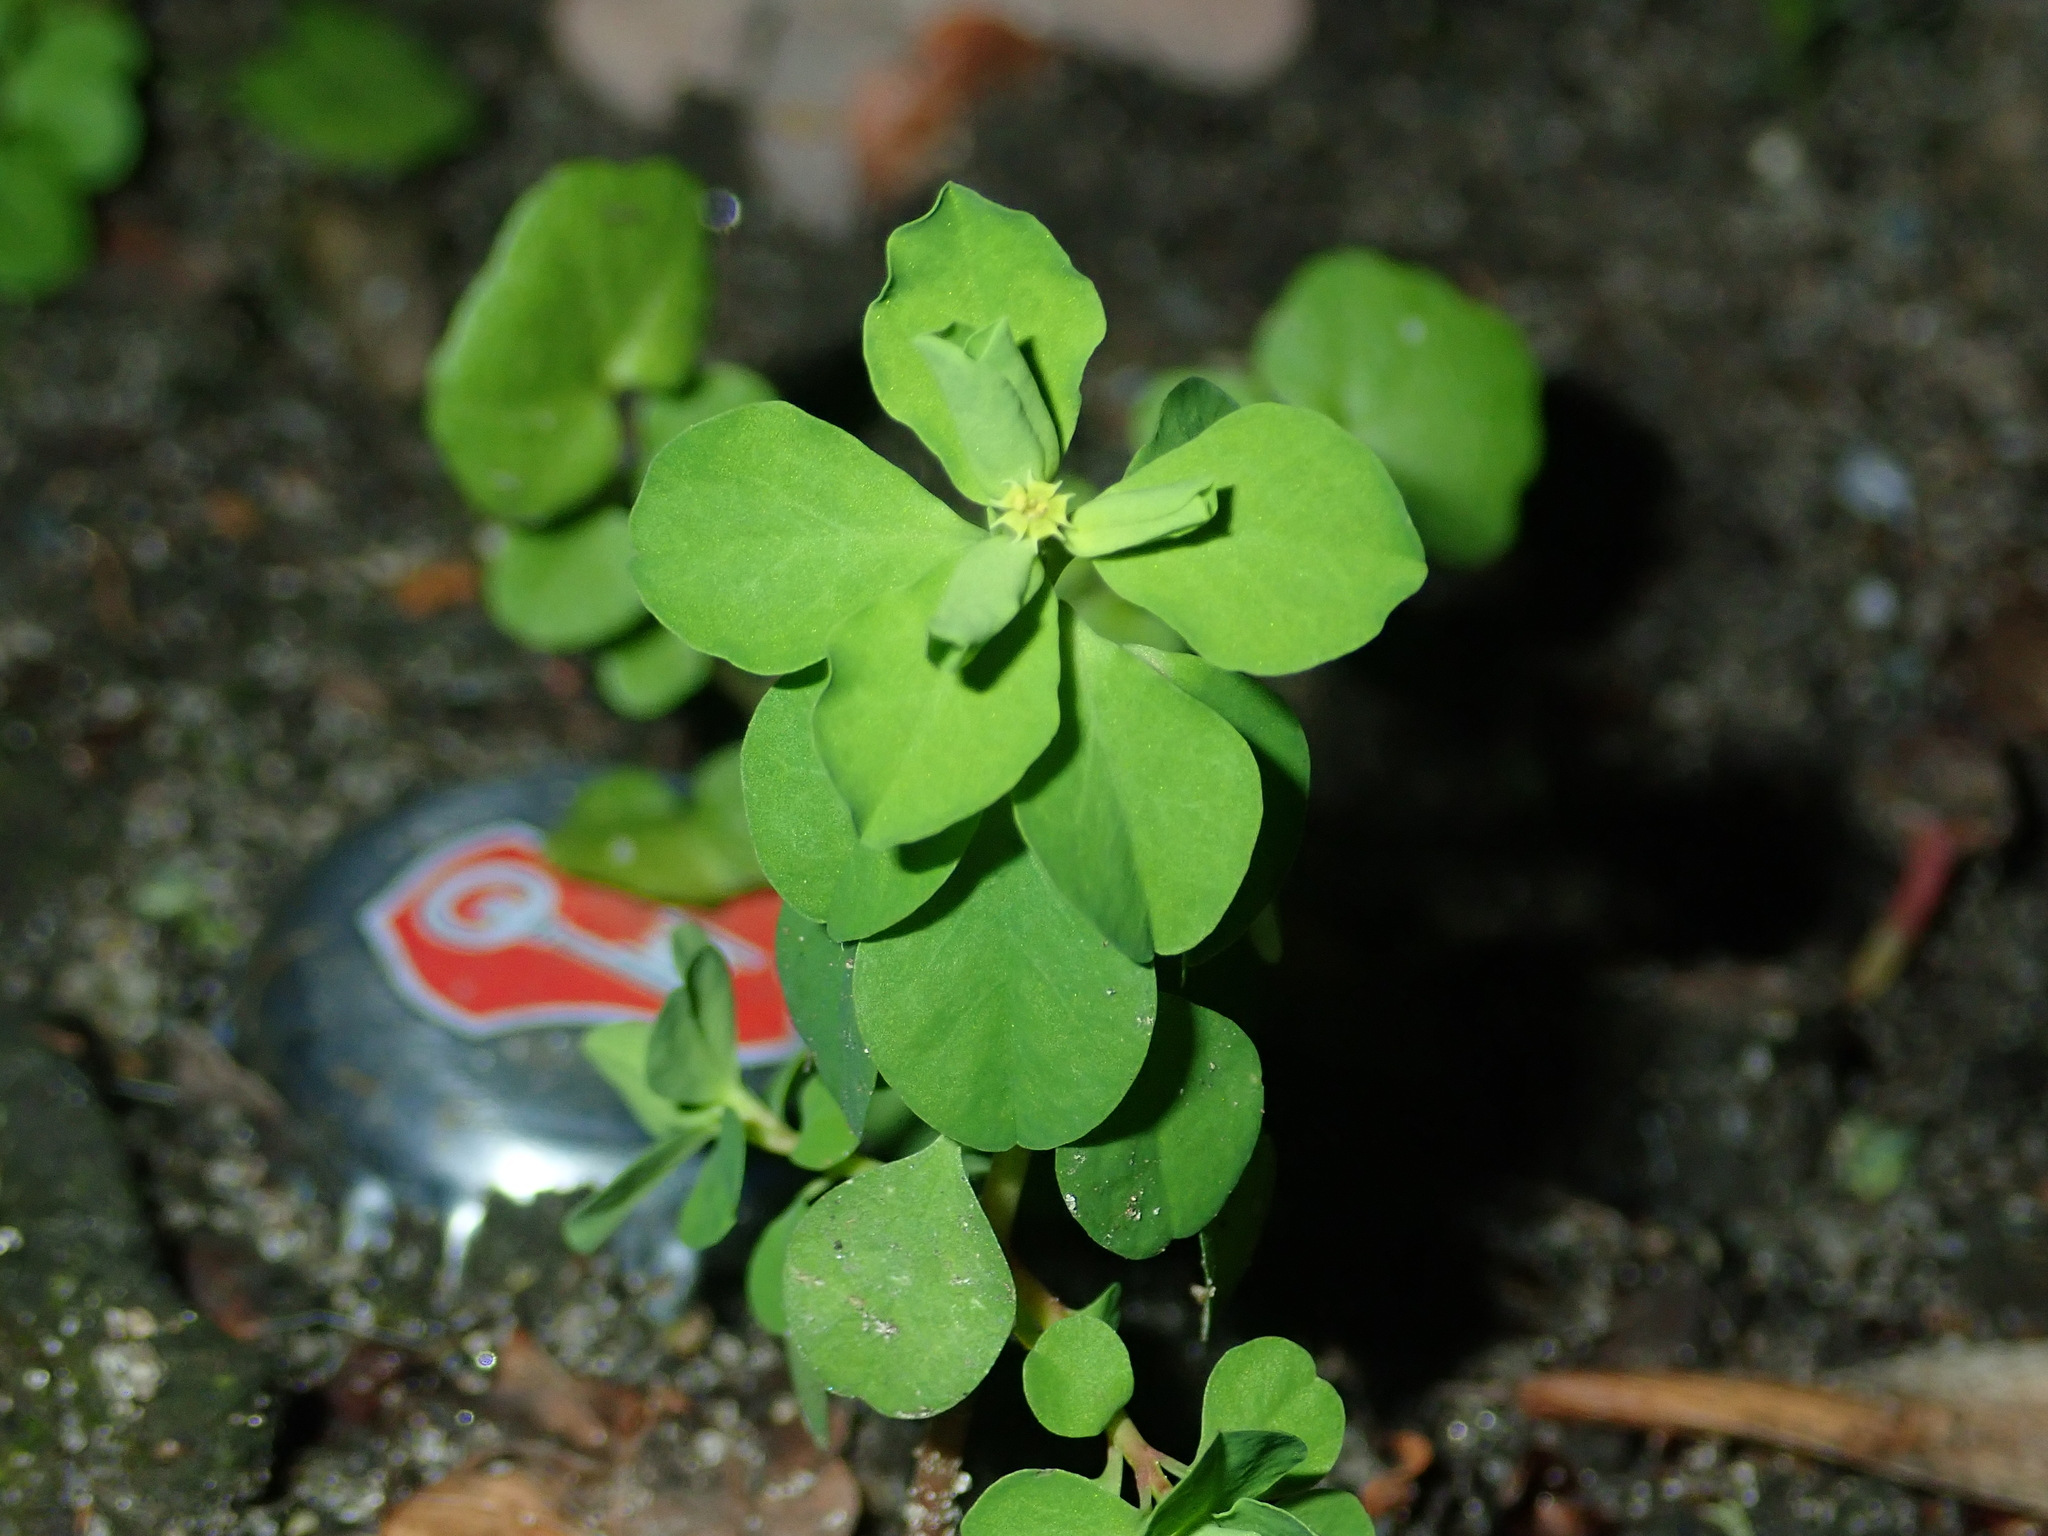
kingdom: Plantae
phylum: Tracheophyta
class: Magnoliopsida
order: Malpighiales
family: Euphorbiaceae
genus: Euphorbia
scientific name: Euphorbia peplus
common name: Petty spurge
